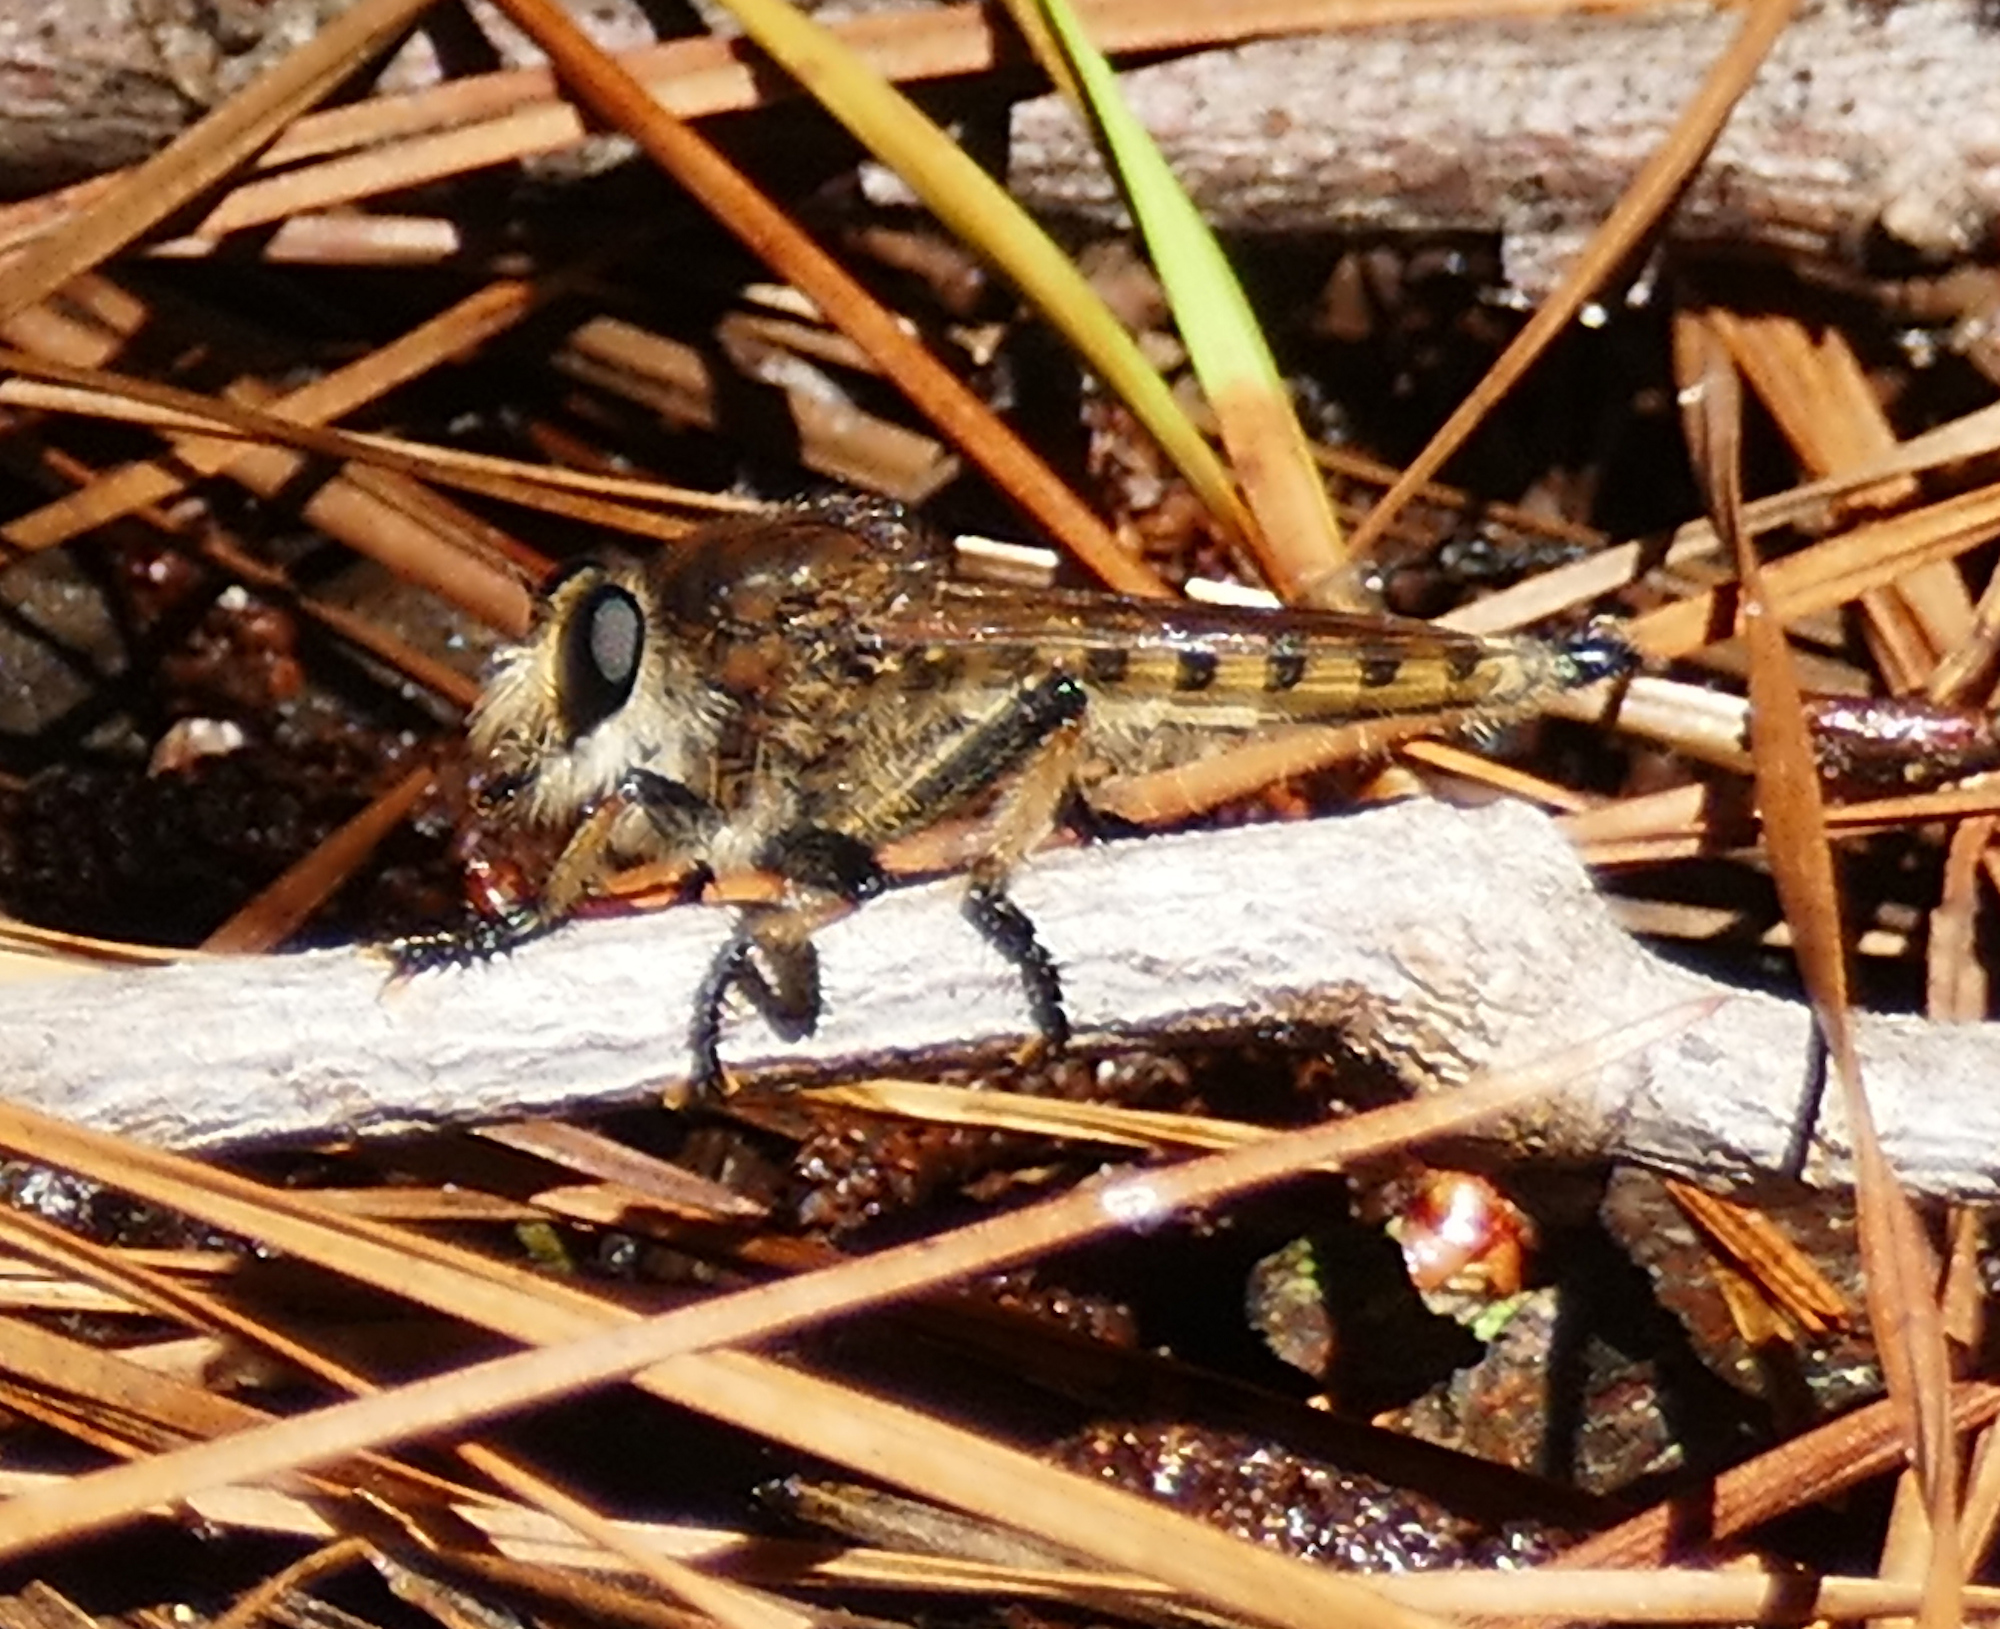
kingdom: Animalia
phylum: Arthropoda
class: Insecta
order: Diptera
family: Asilidae
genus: Promachus
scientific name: Promachus rufipes
